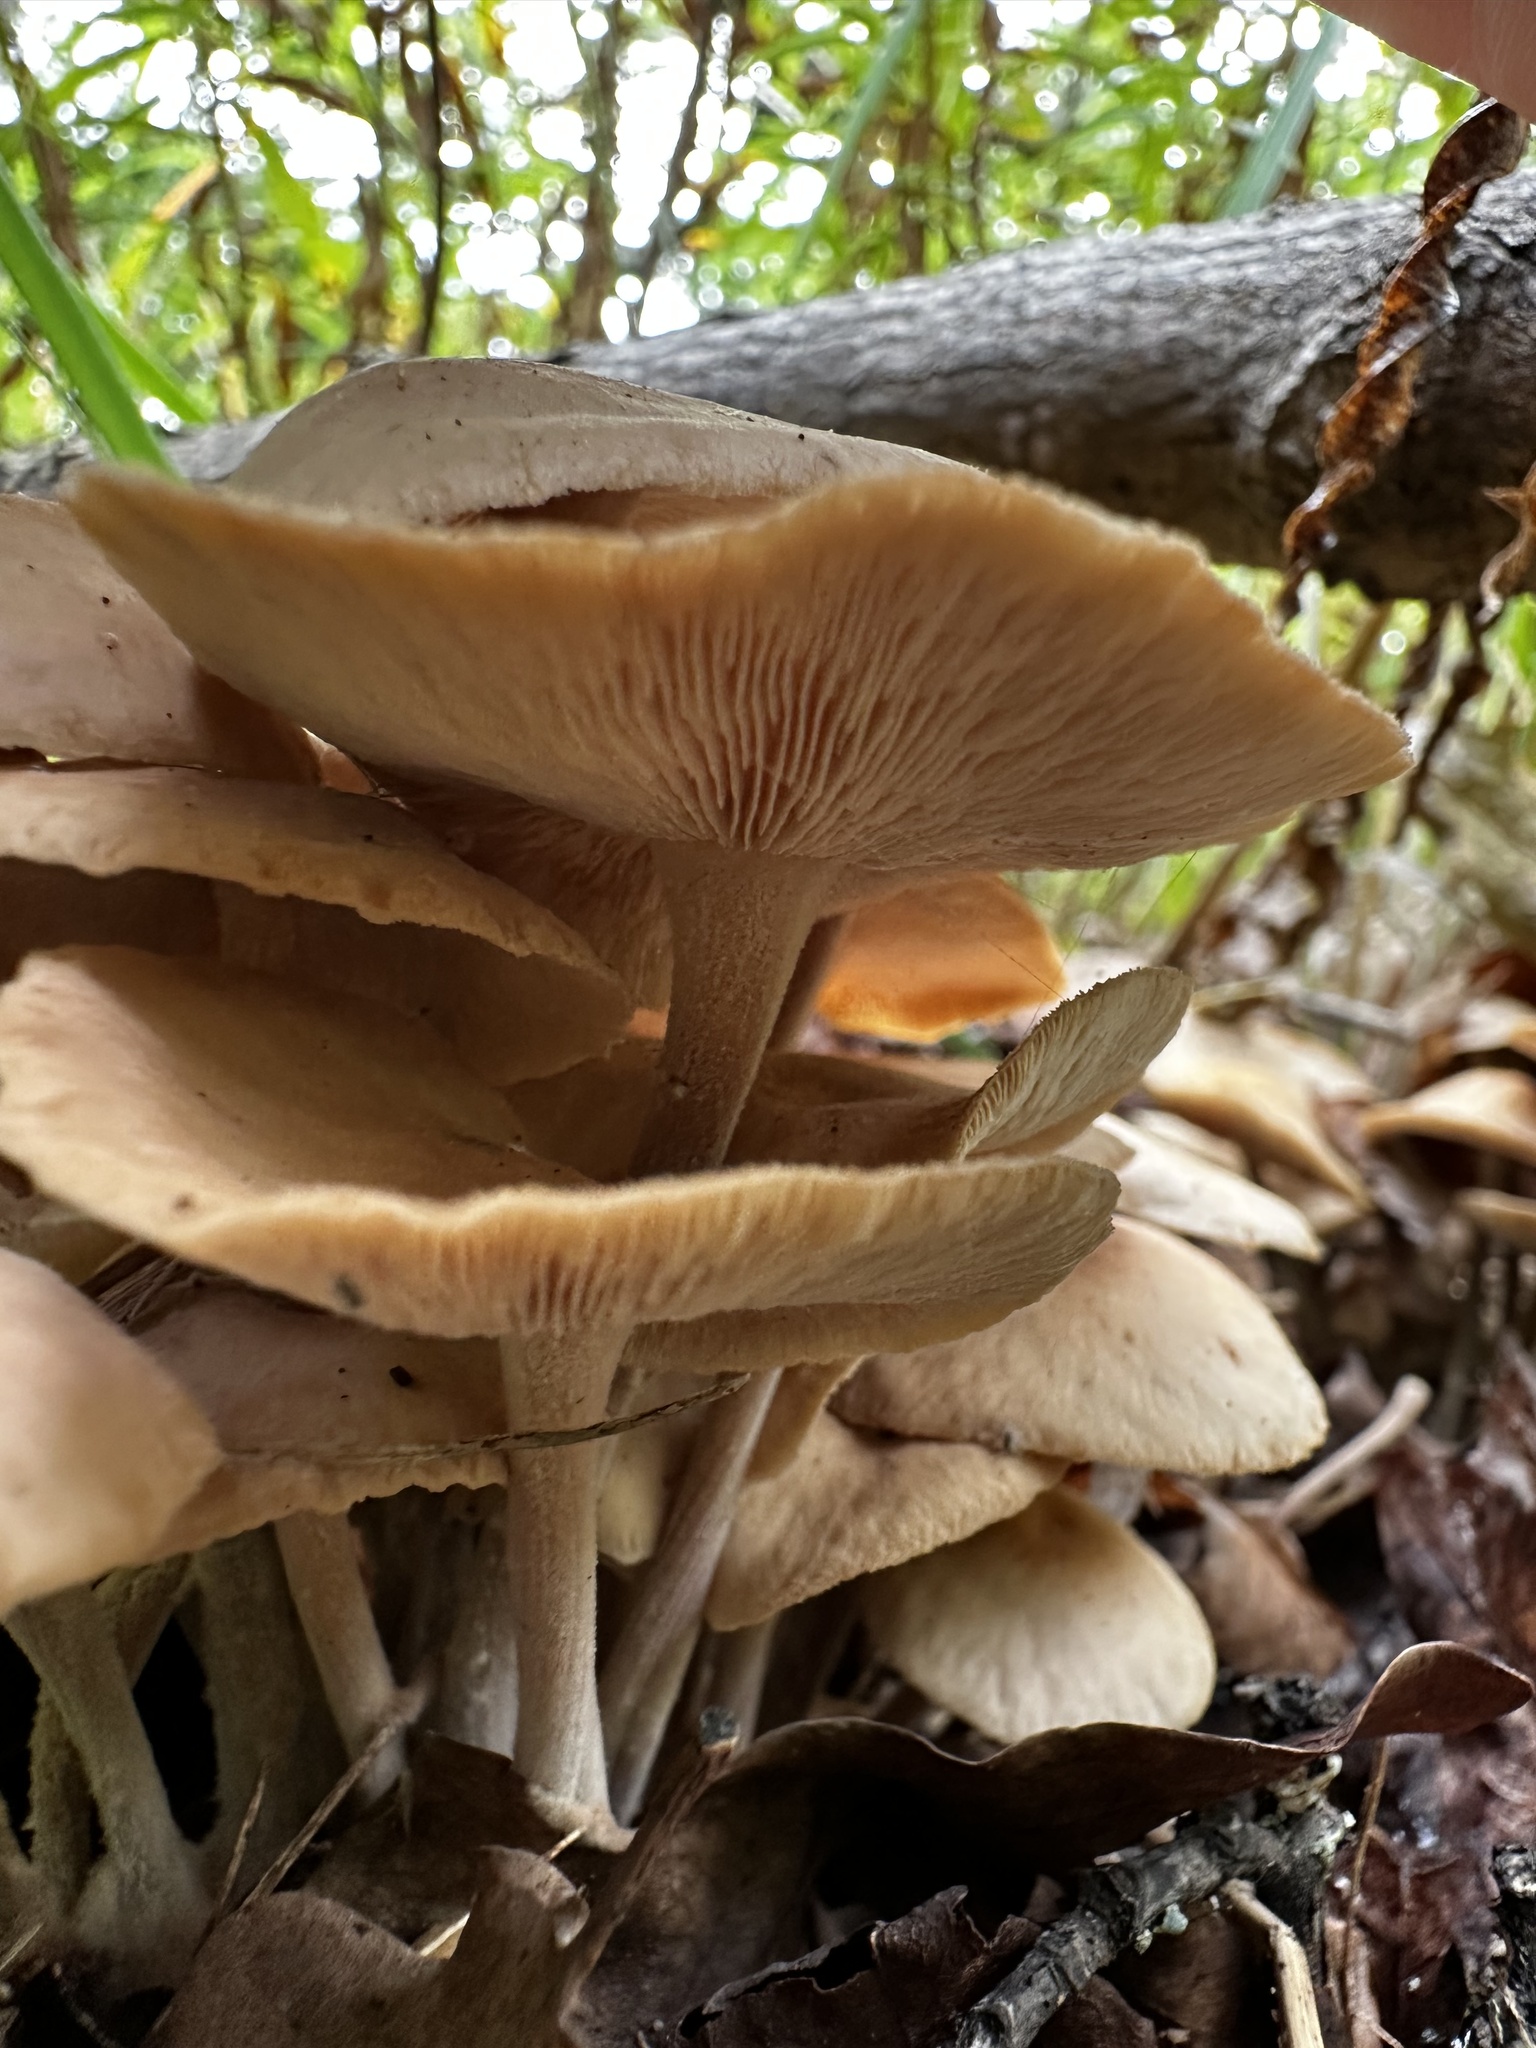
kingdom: Fungi
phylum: Basidiomycota
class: Agaricomycetes
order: Agaricales
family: Omphalotaceae
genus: Collybiopsis
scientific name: Collybiopsis confluens
